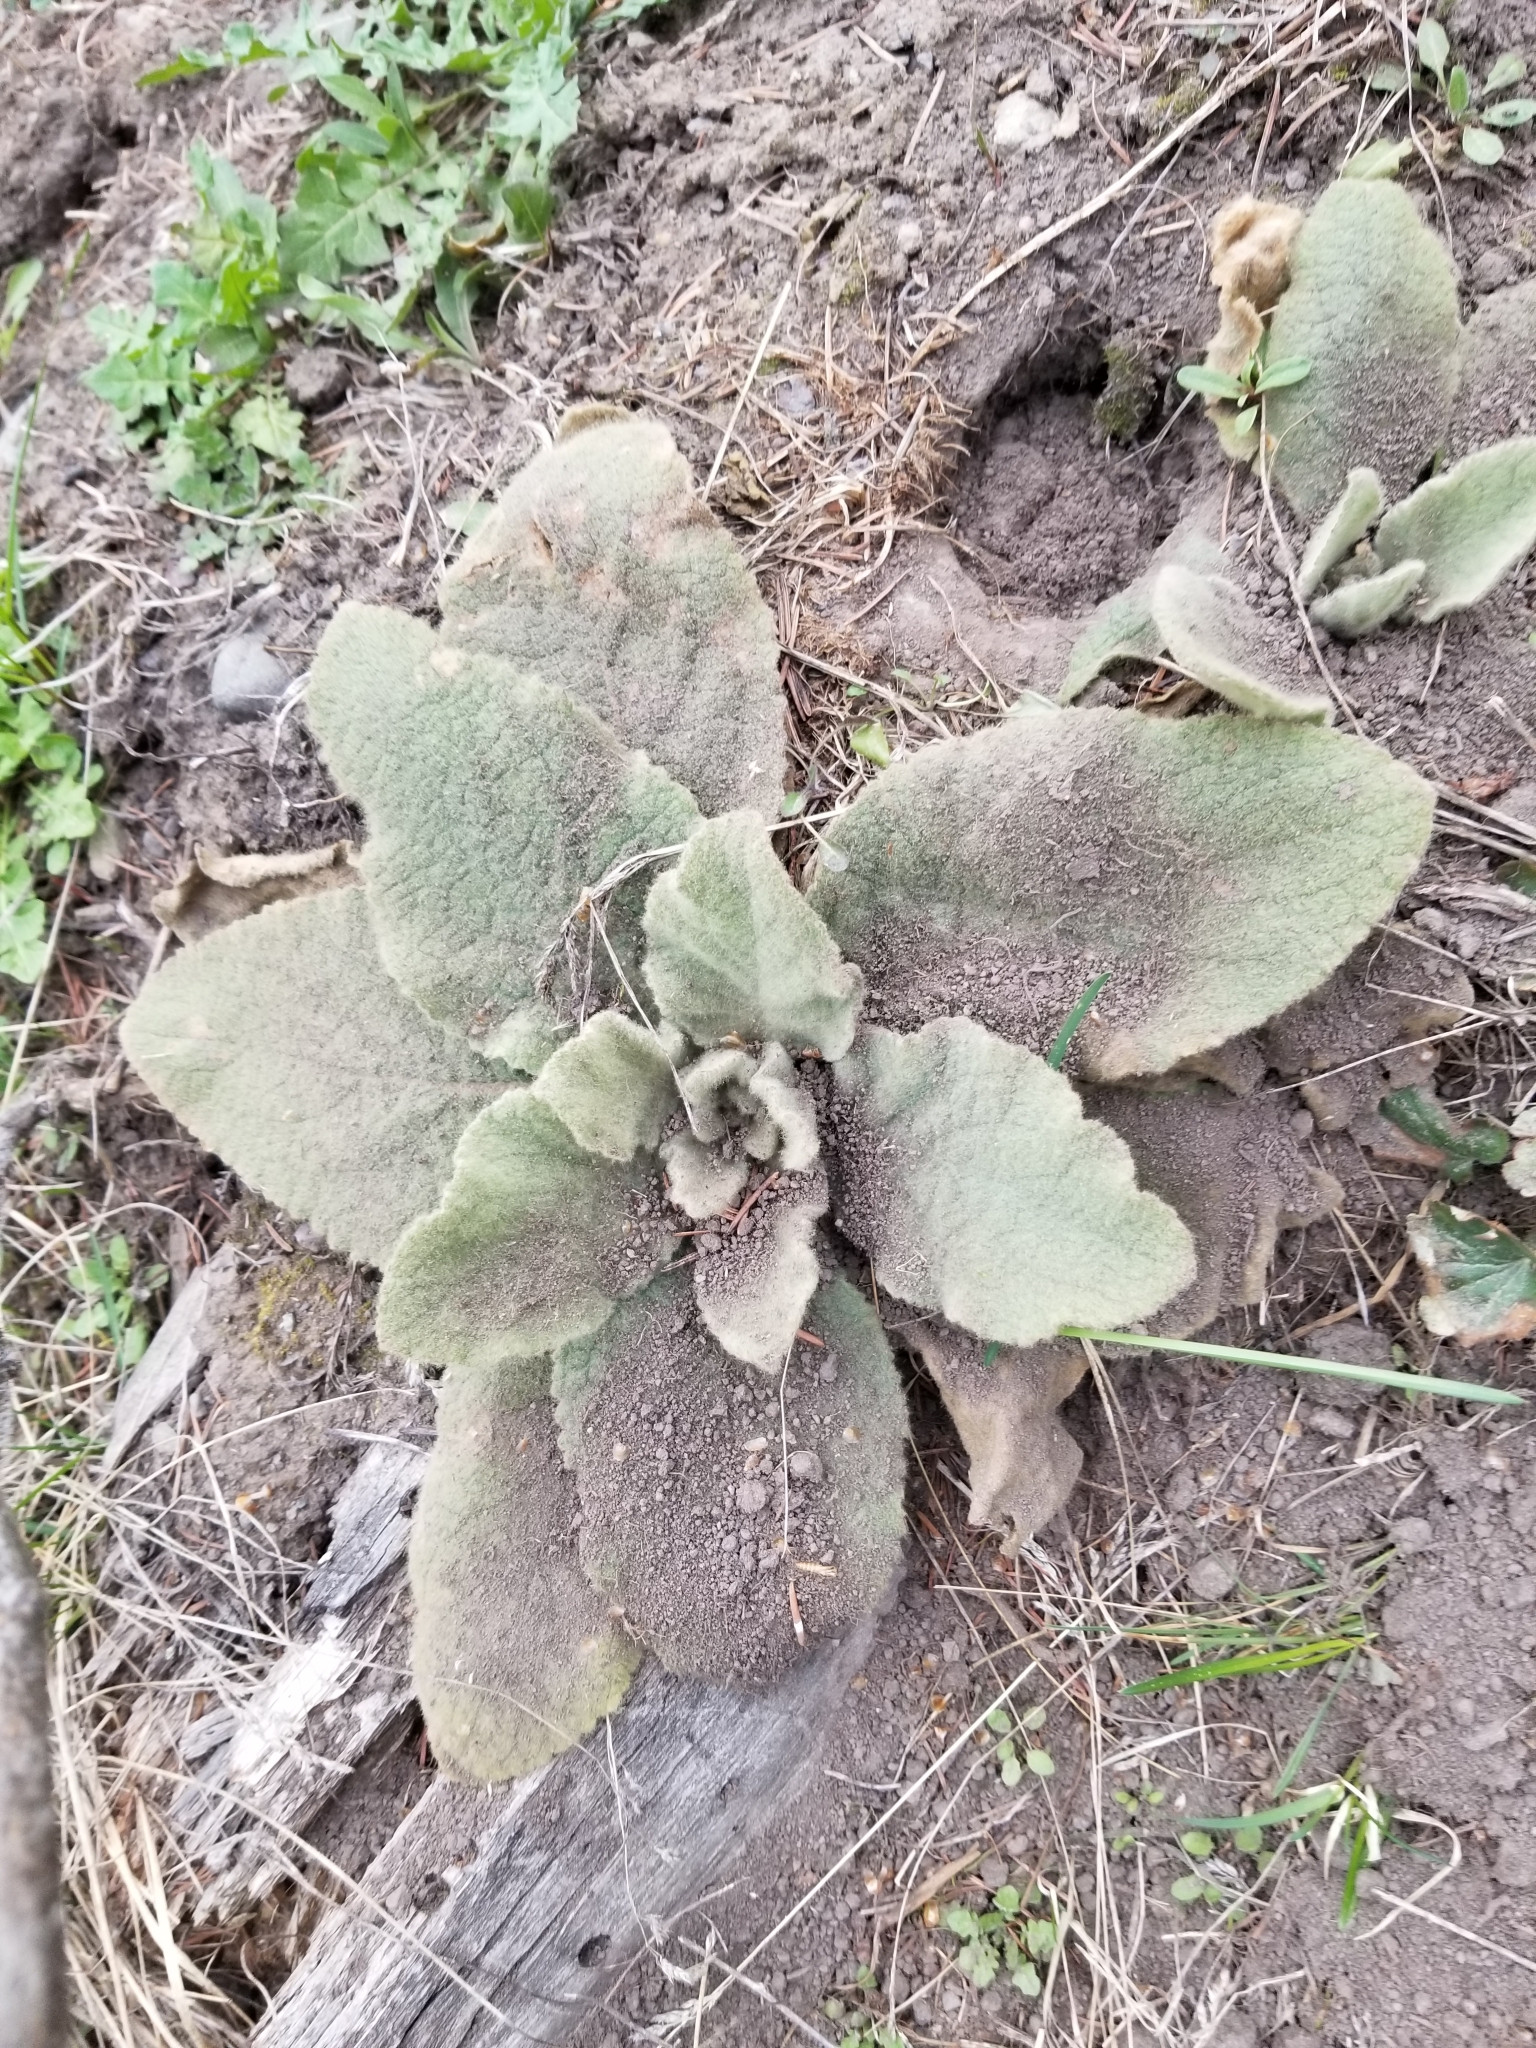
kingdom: Plantae
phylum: Tracheophyta
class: Magnoliopsida
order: Lamiales
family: Scrophulariaceae
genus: Verbascum
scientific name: Verbascum thapsus
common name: Common mullein
